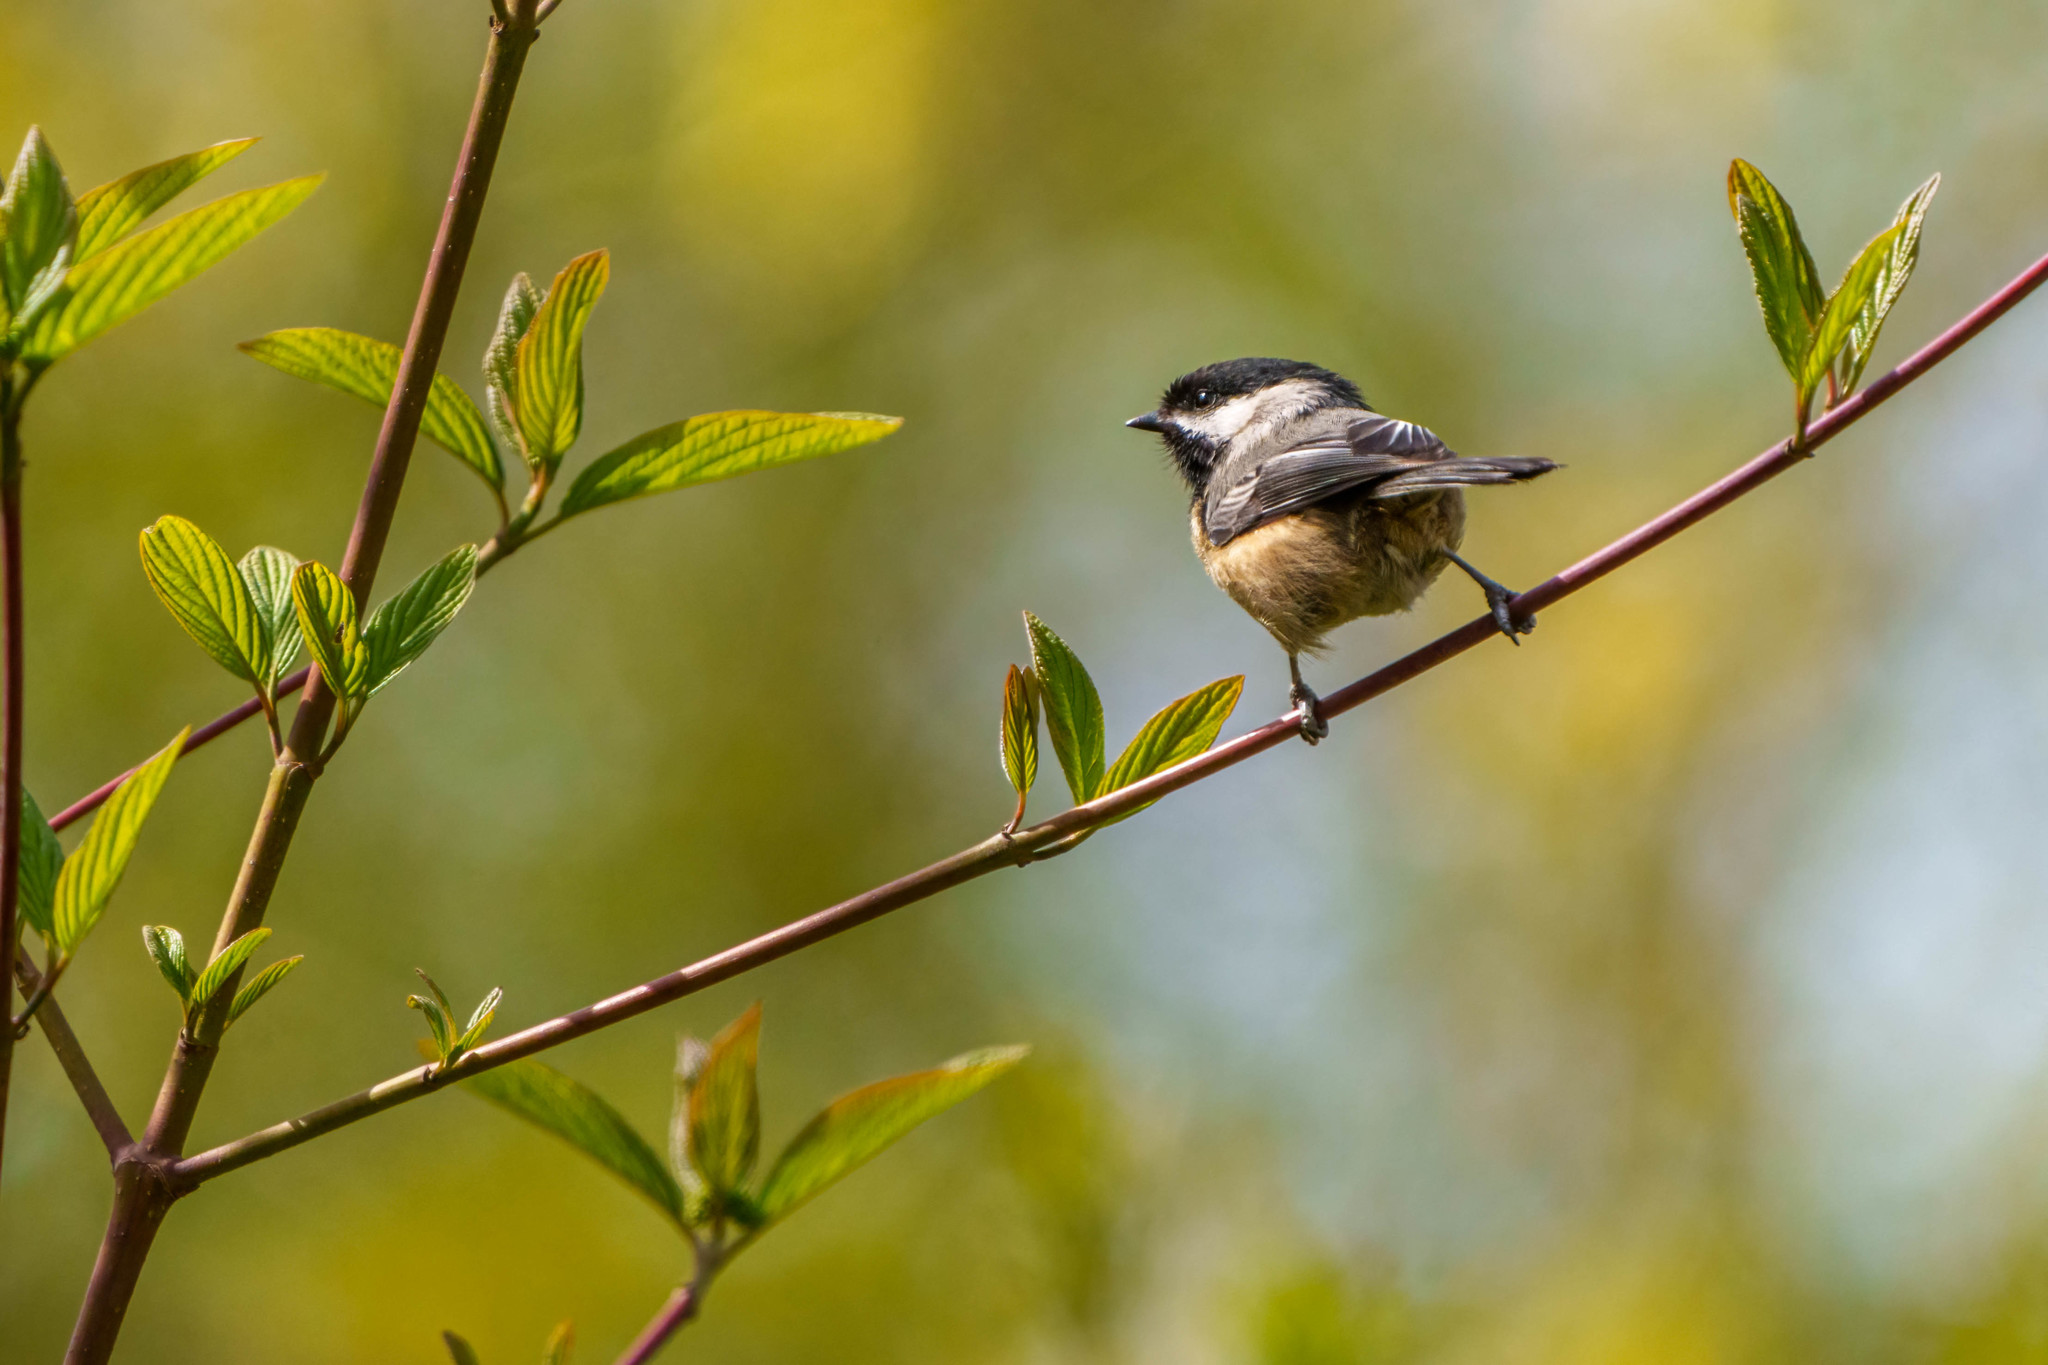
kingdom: Animalia
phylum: Chordata
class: Aves
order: Passeriformes
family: Paridae
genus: Poecile
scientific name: Poecile atricapillus
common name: Black-capped chickadee
